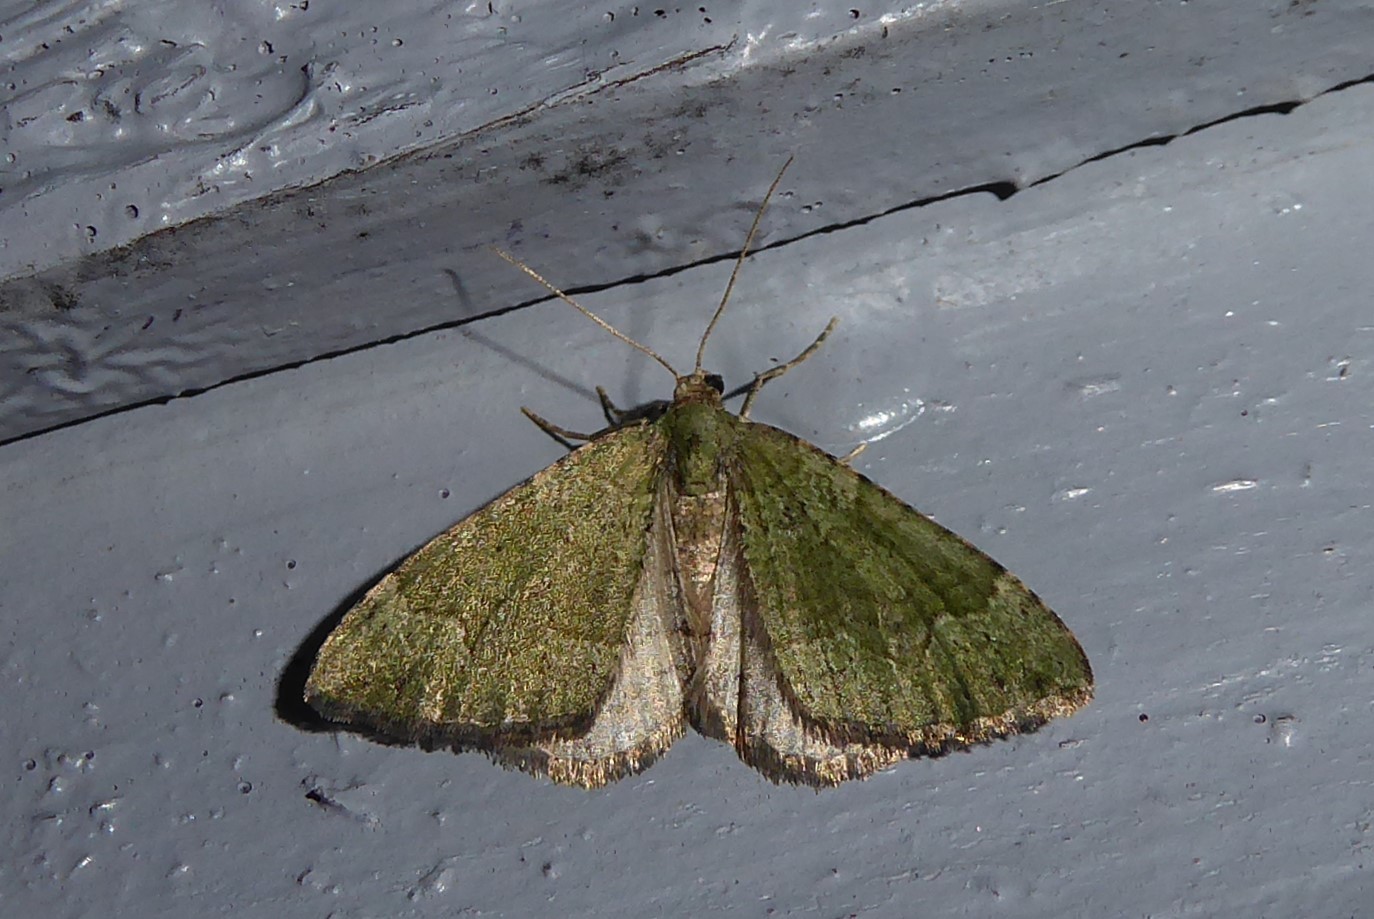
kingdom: Animalia
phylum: Arthropoda
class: Insecta
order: Lepidoptera
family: Geometridae
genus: Epyaxa
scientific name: Epyaxa rosearia
